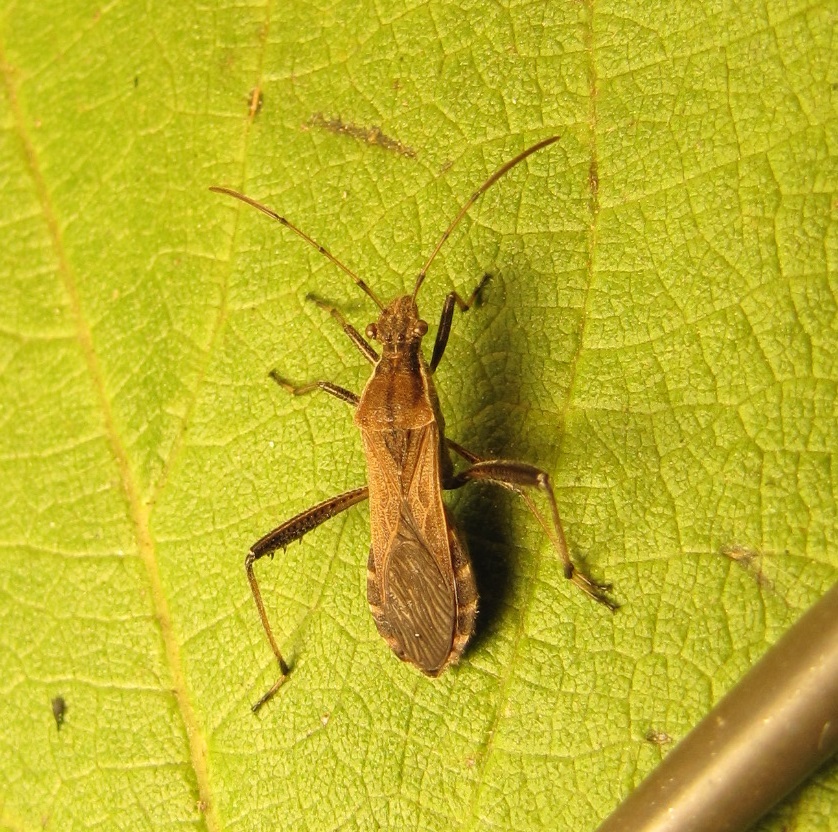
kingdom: Animalia
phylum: Arthropoda
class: Insecta
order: Hemiptera
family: Alydidae
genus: Alydus
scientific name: Alydus pilosulus
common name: Broad-headed bug
